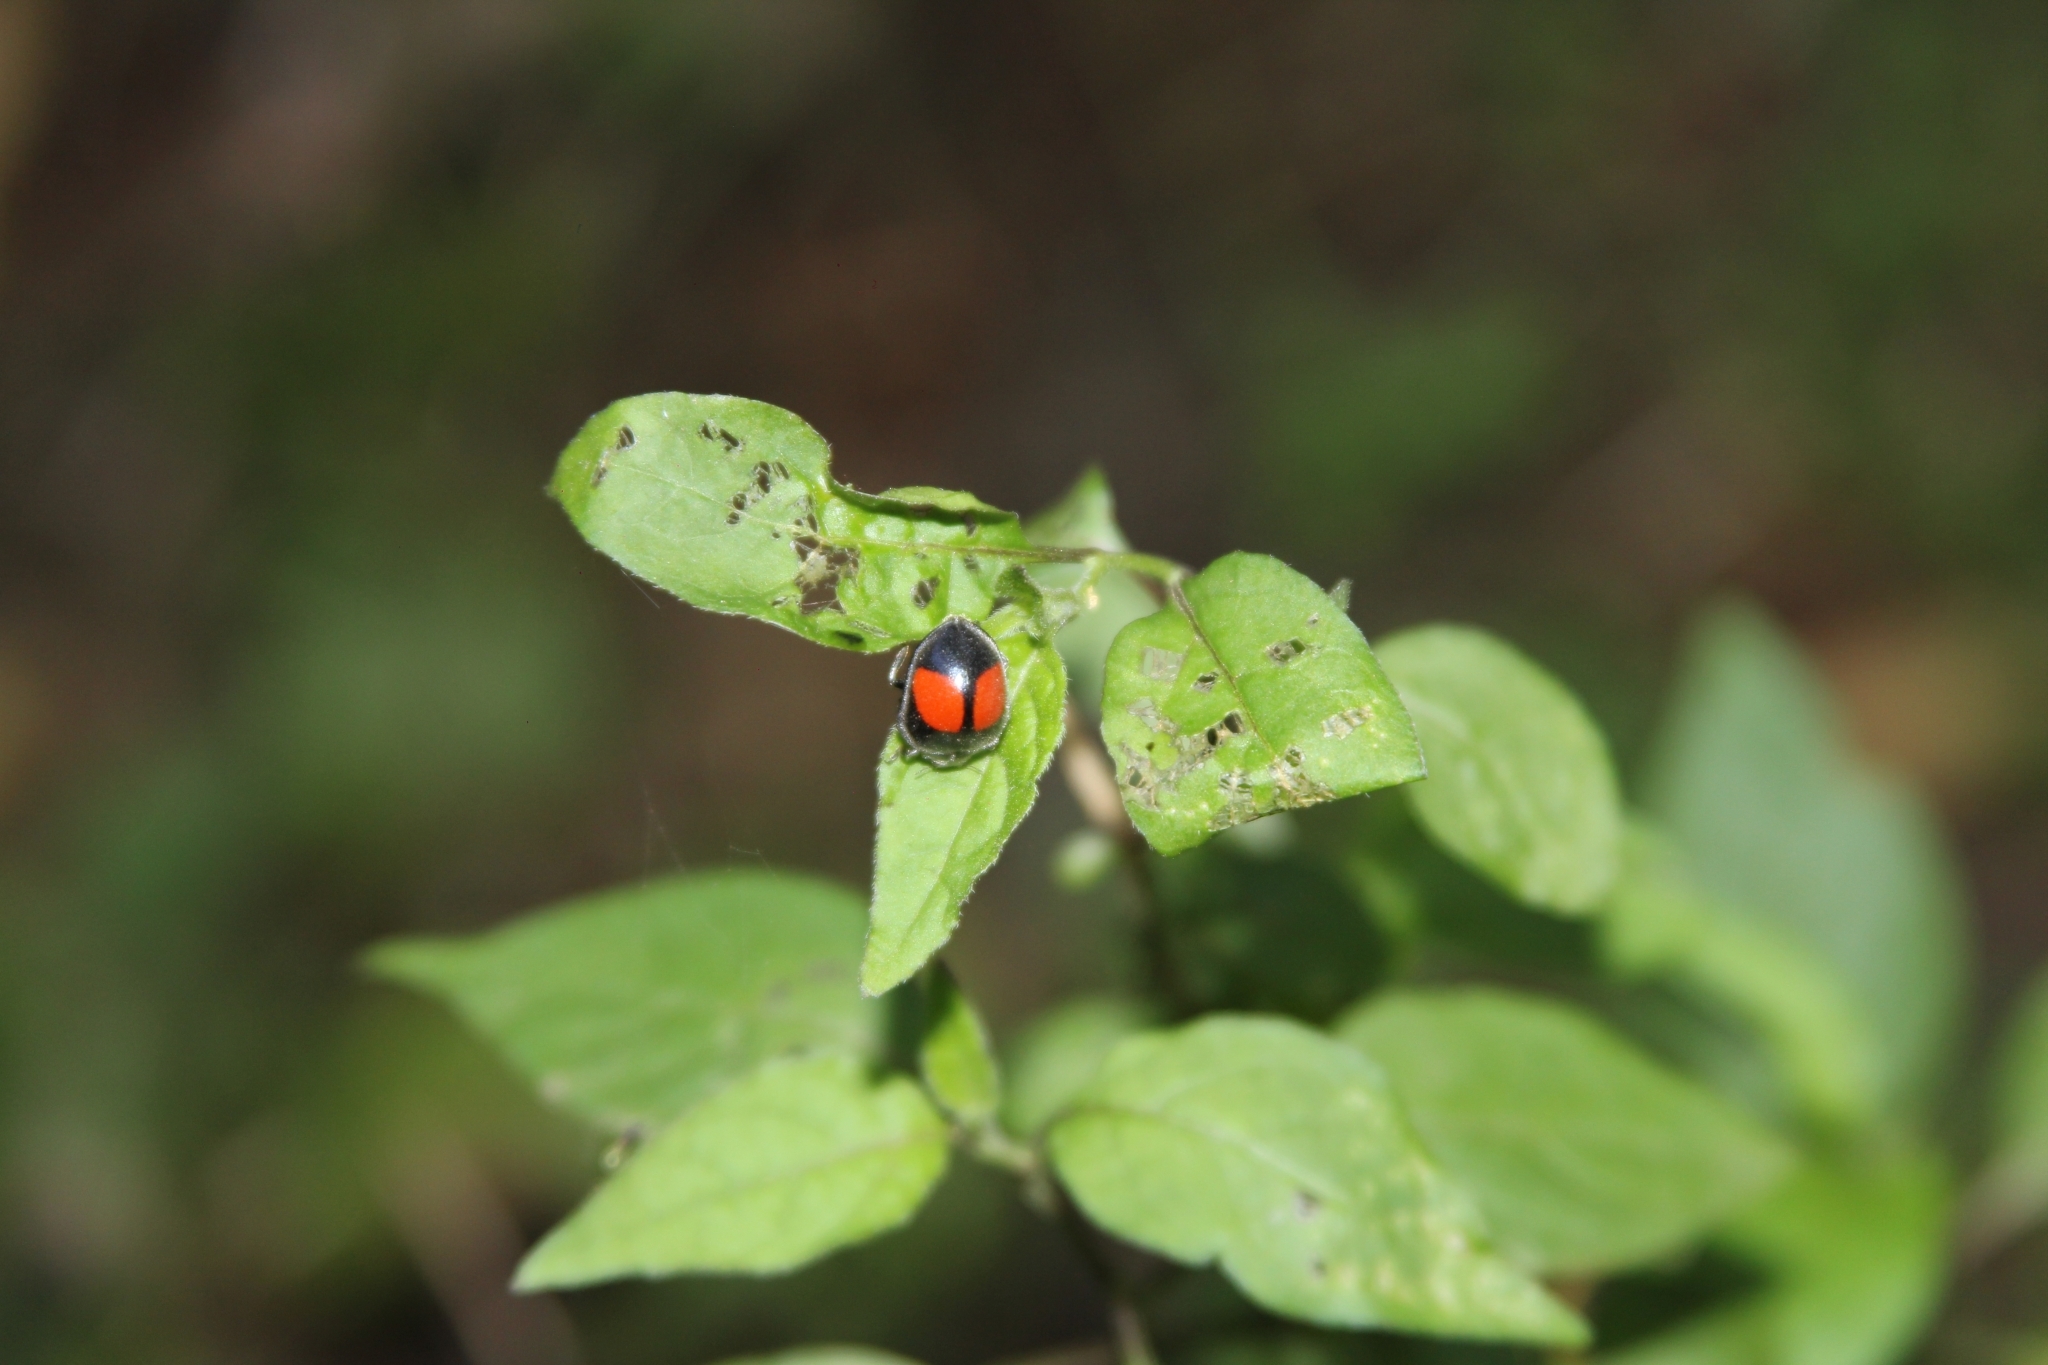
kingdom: Animalia
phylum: Arthropoda
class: Insecta
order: Coleoptera
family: Coccinellidae
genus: Epilachna
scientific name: Epilachna sellata
